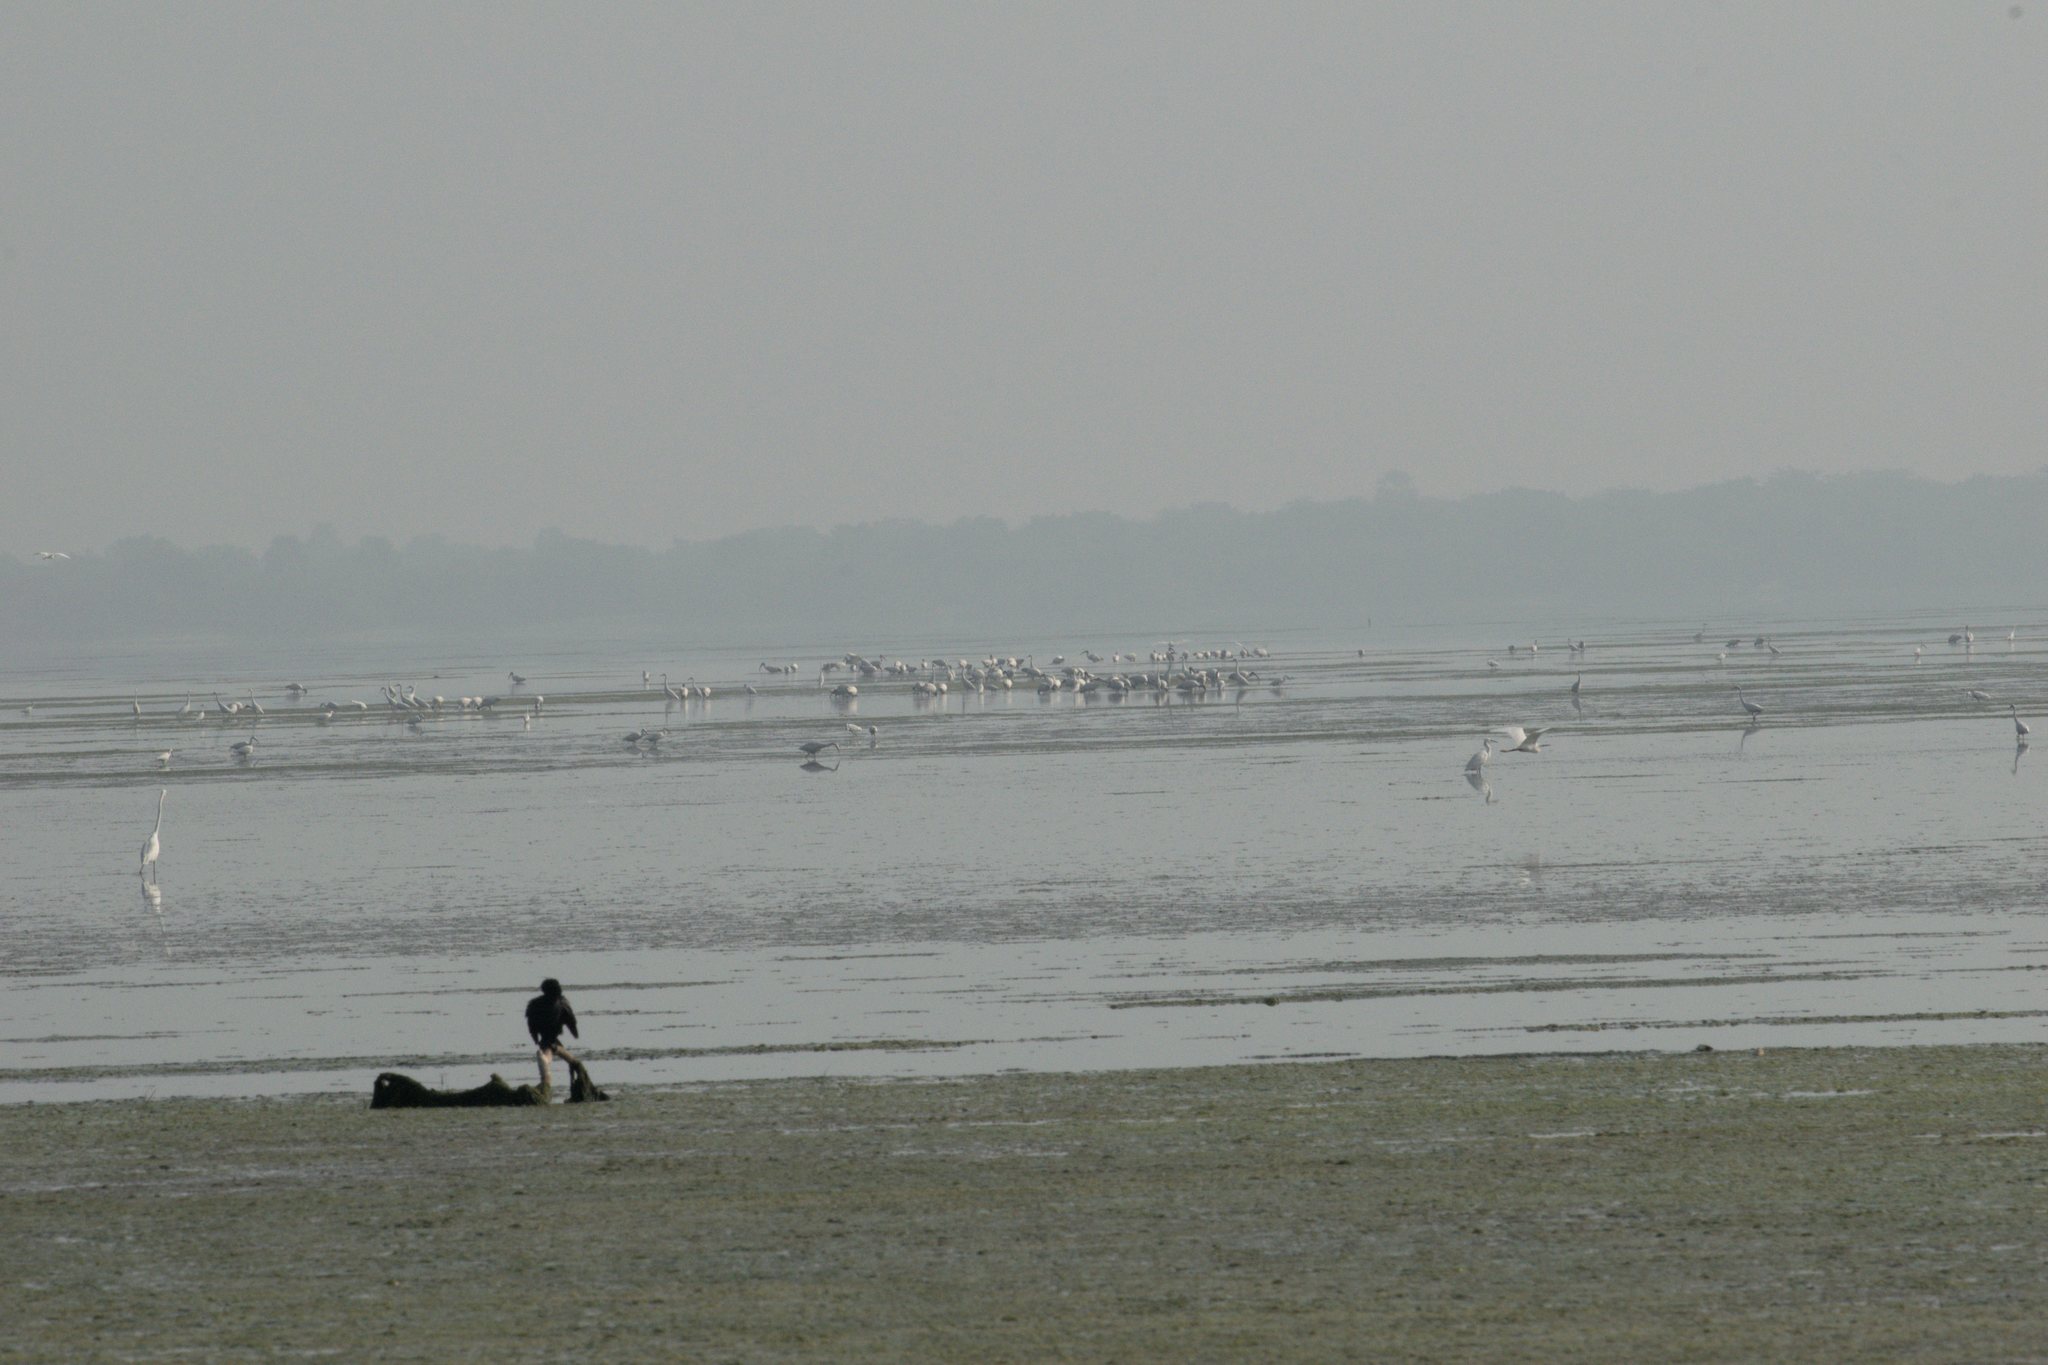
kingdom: Animalia
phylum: Chordata
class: Aves
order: Suliformes
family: Phalacrocoracidae
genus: Microcarbo
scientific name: Microcarbo niger
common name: Little cormorant
